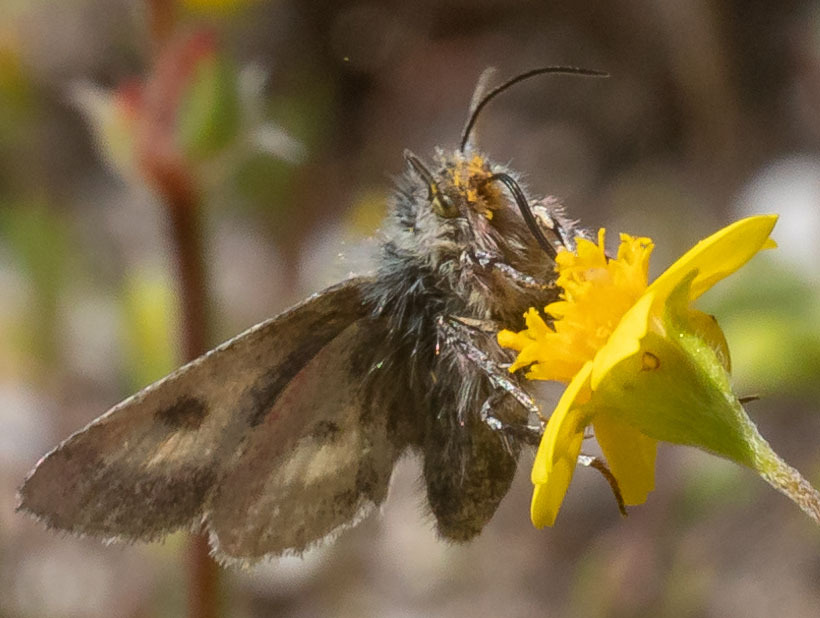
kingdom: Animalia
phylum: Arthropoda
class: Insecta
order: Lepidoptera
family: Noctuidae
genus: Schinia
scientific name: Schinia pulchripennis
